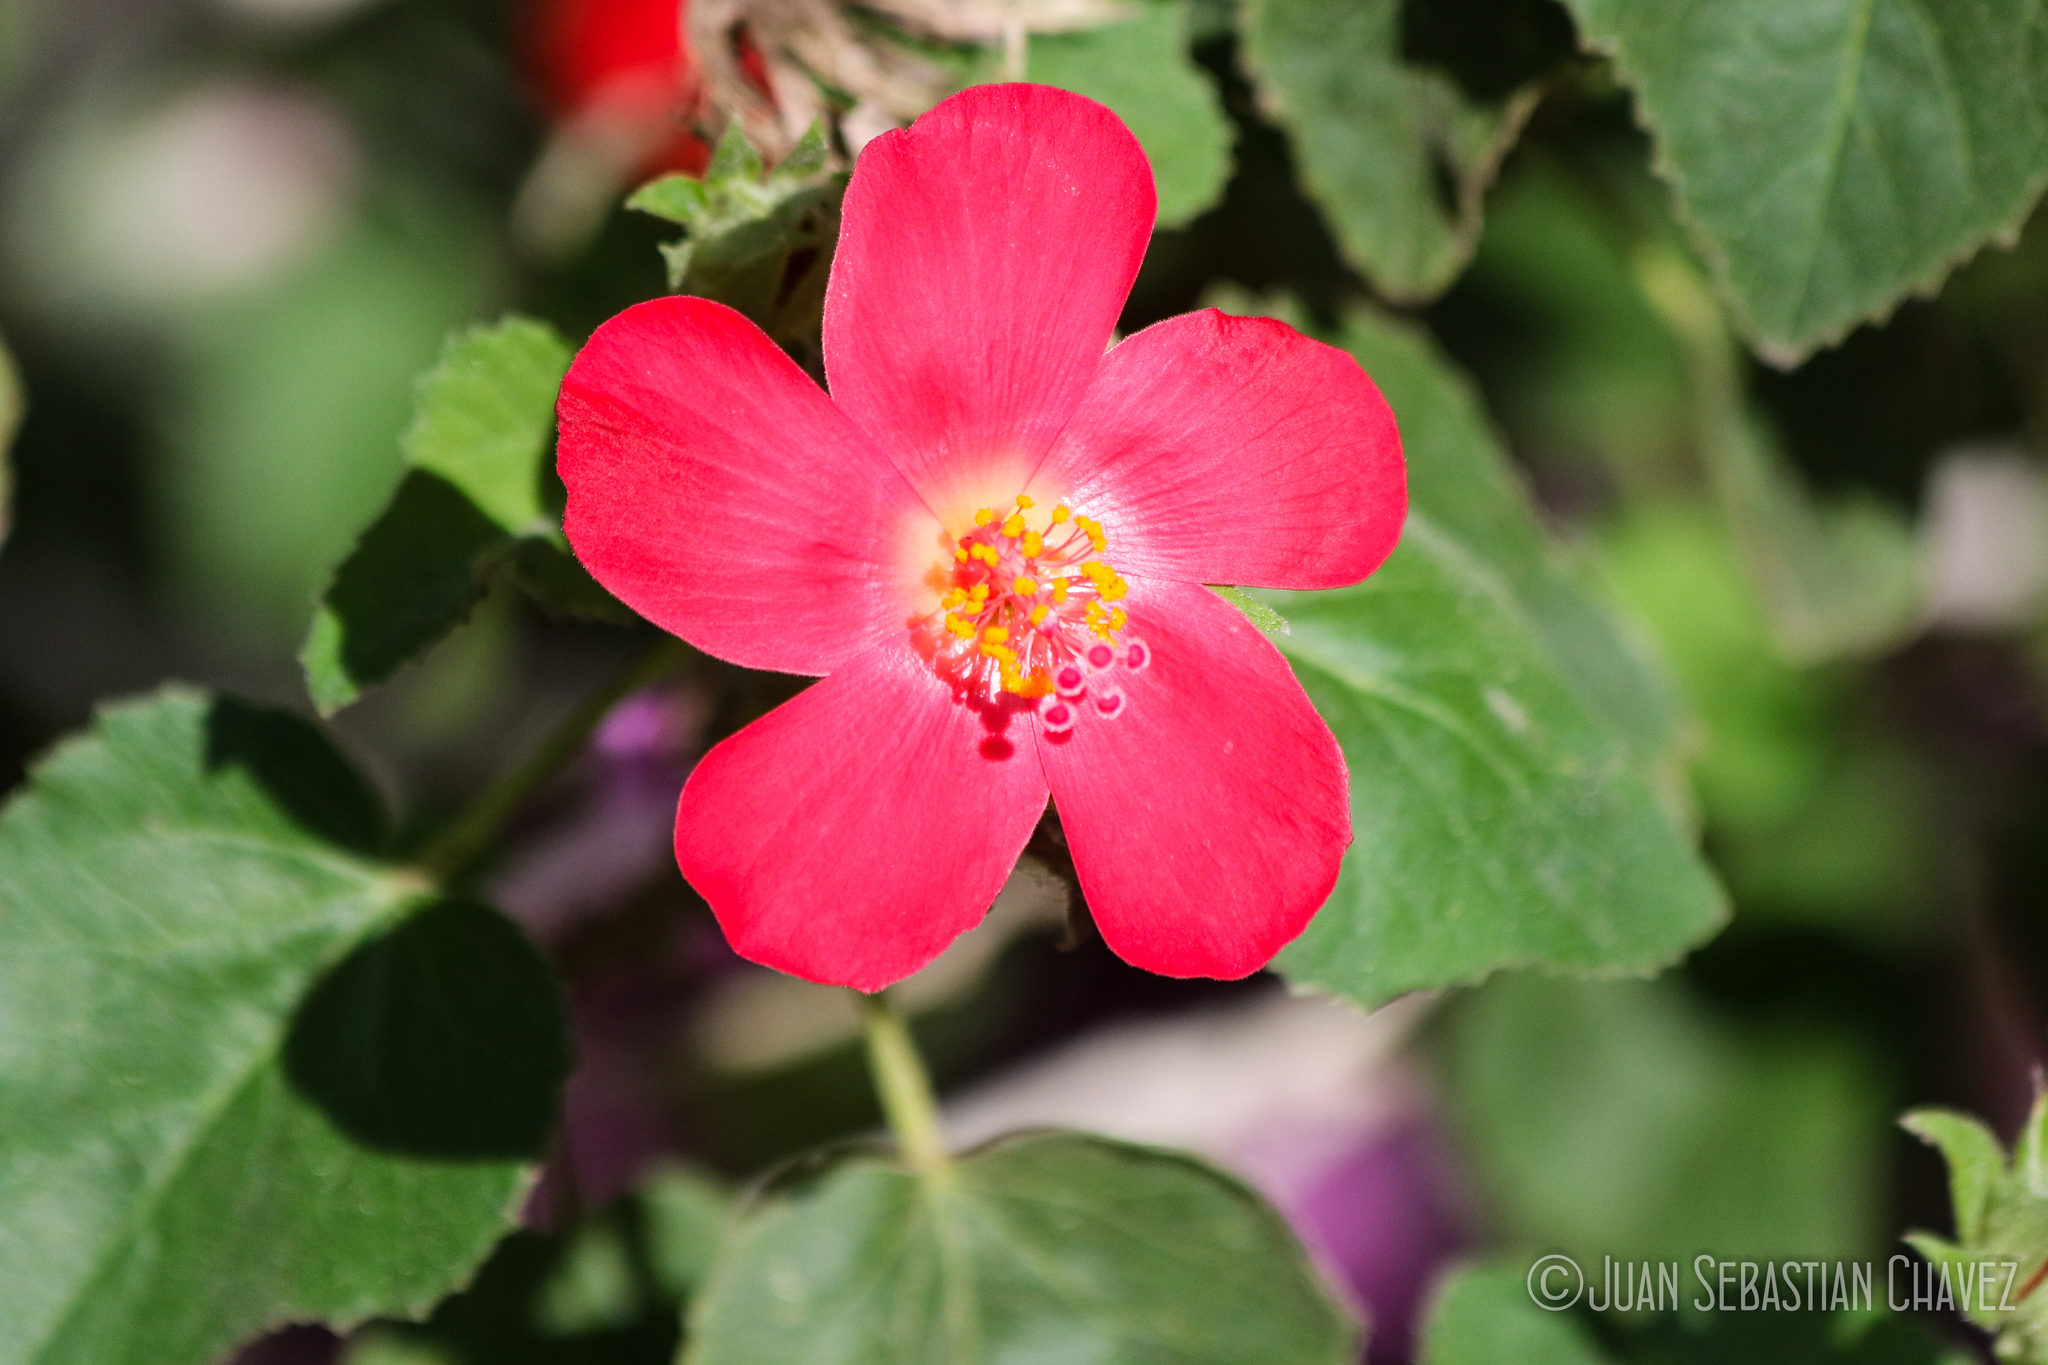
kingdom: Plantae
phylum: Tracheophyta
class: Magnoliopsida
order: Malvales
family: Malvaceae
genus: Hibiscus
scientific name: Hibiscus martianus
